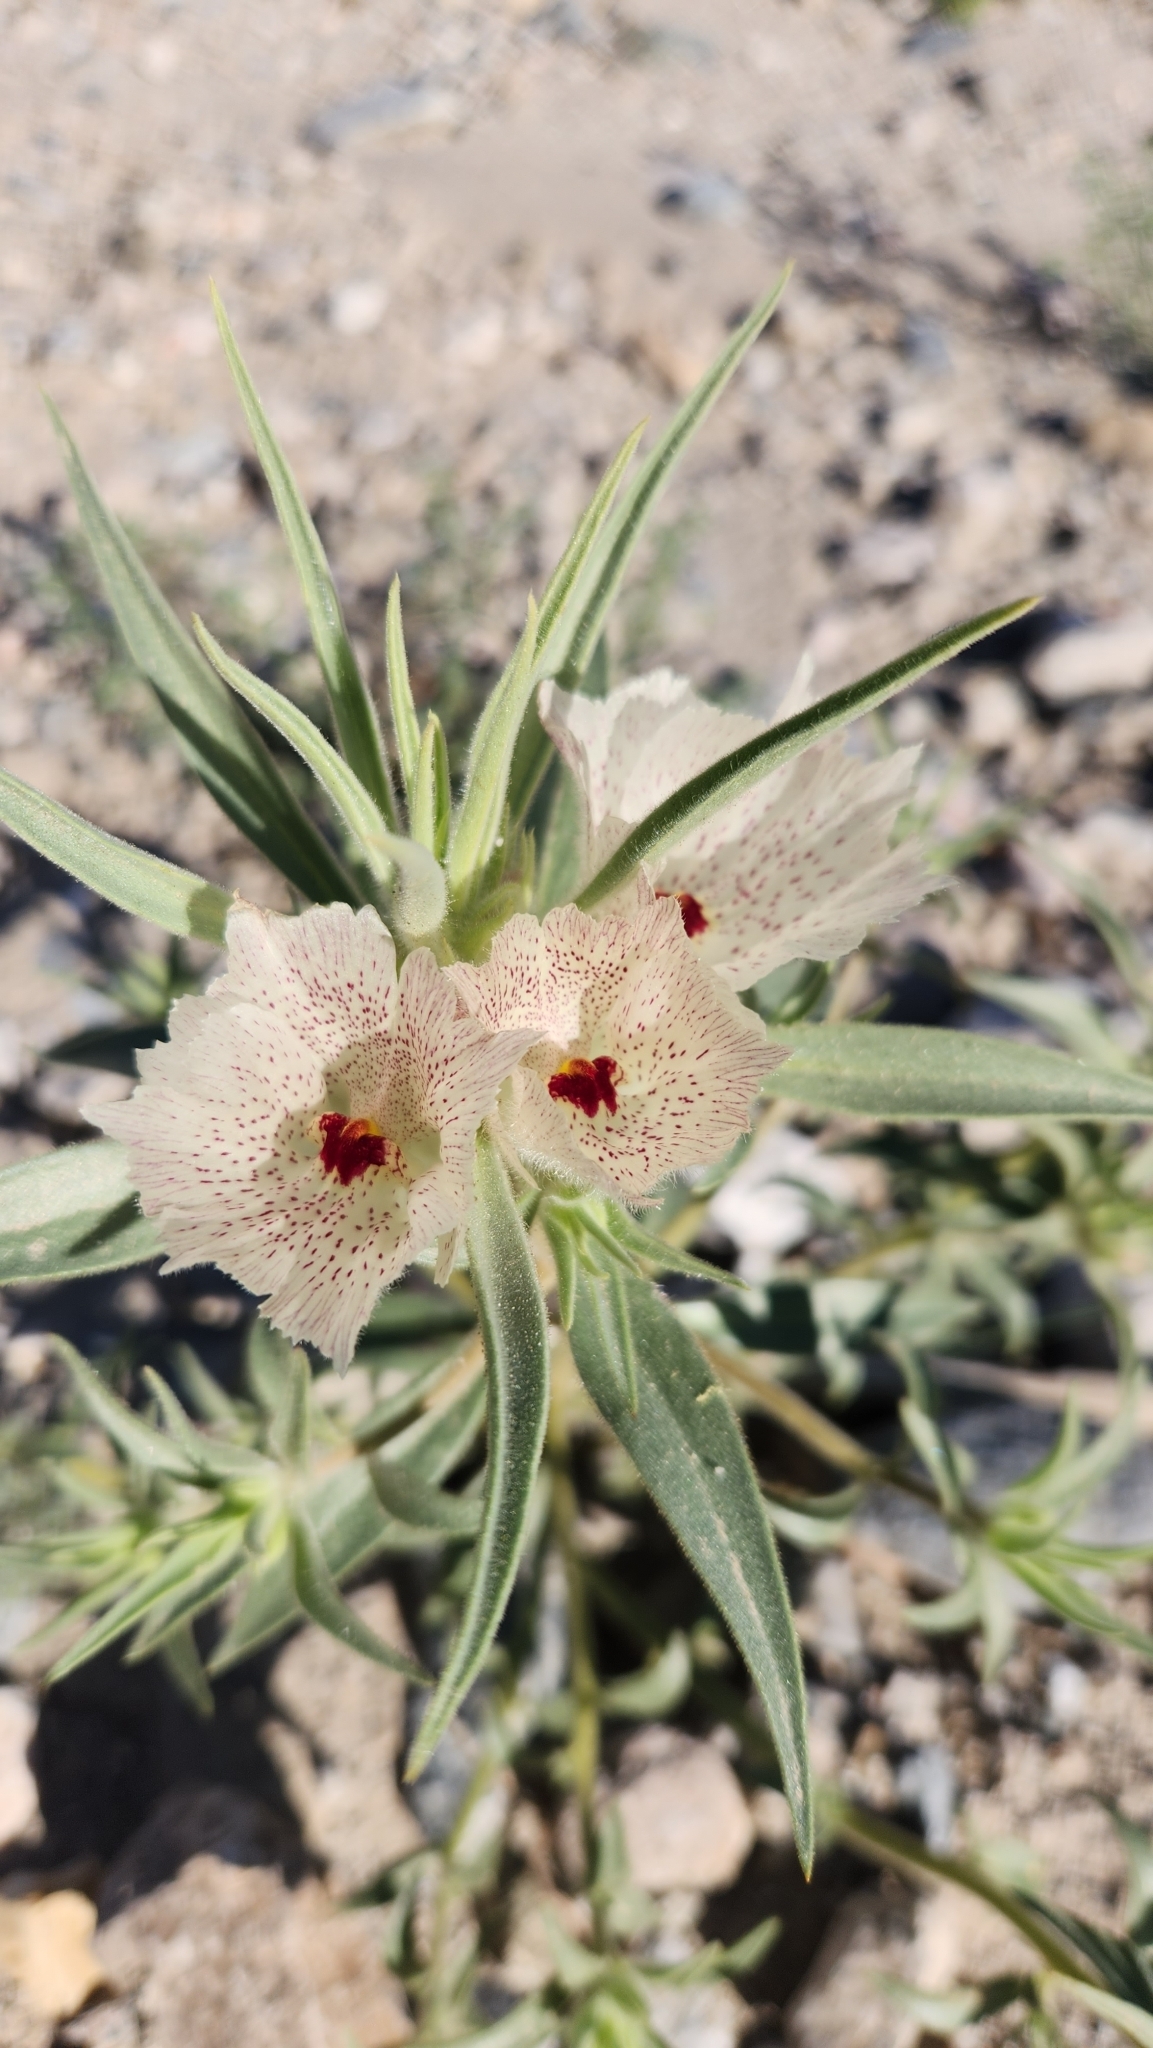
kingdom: Plantae
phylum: Tracheophyta
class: Magnoliopsida
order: Lamiales
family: Plantaginaceae
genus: Mohavea
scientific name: Mohavea confertiflora
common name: Ghost flower
